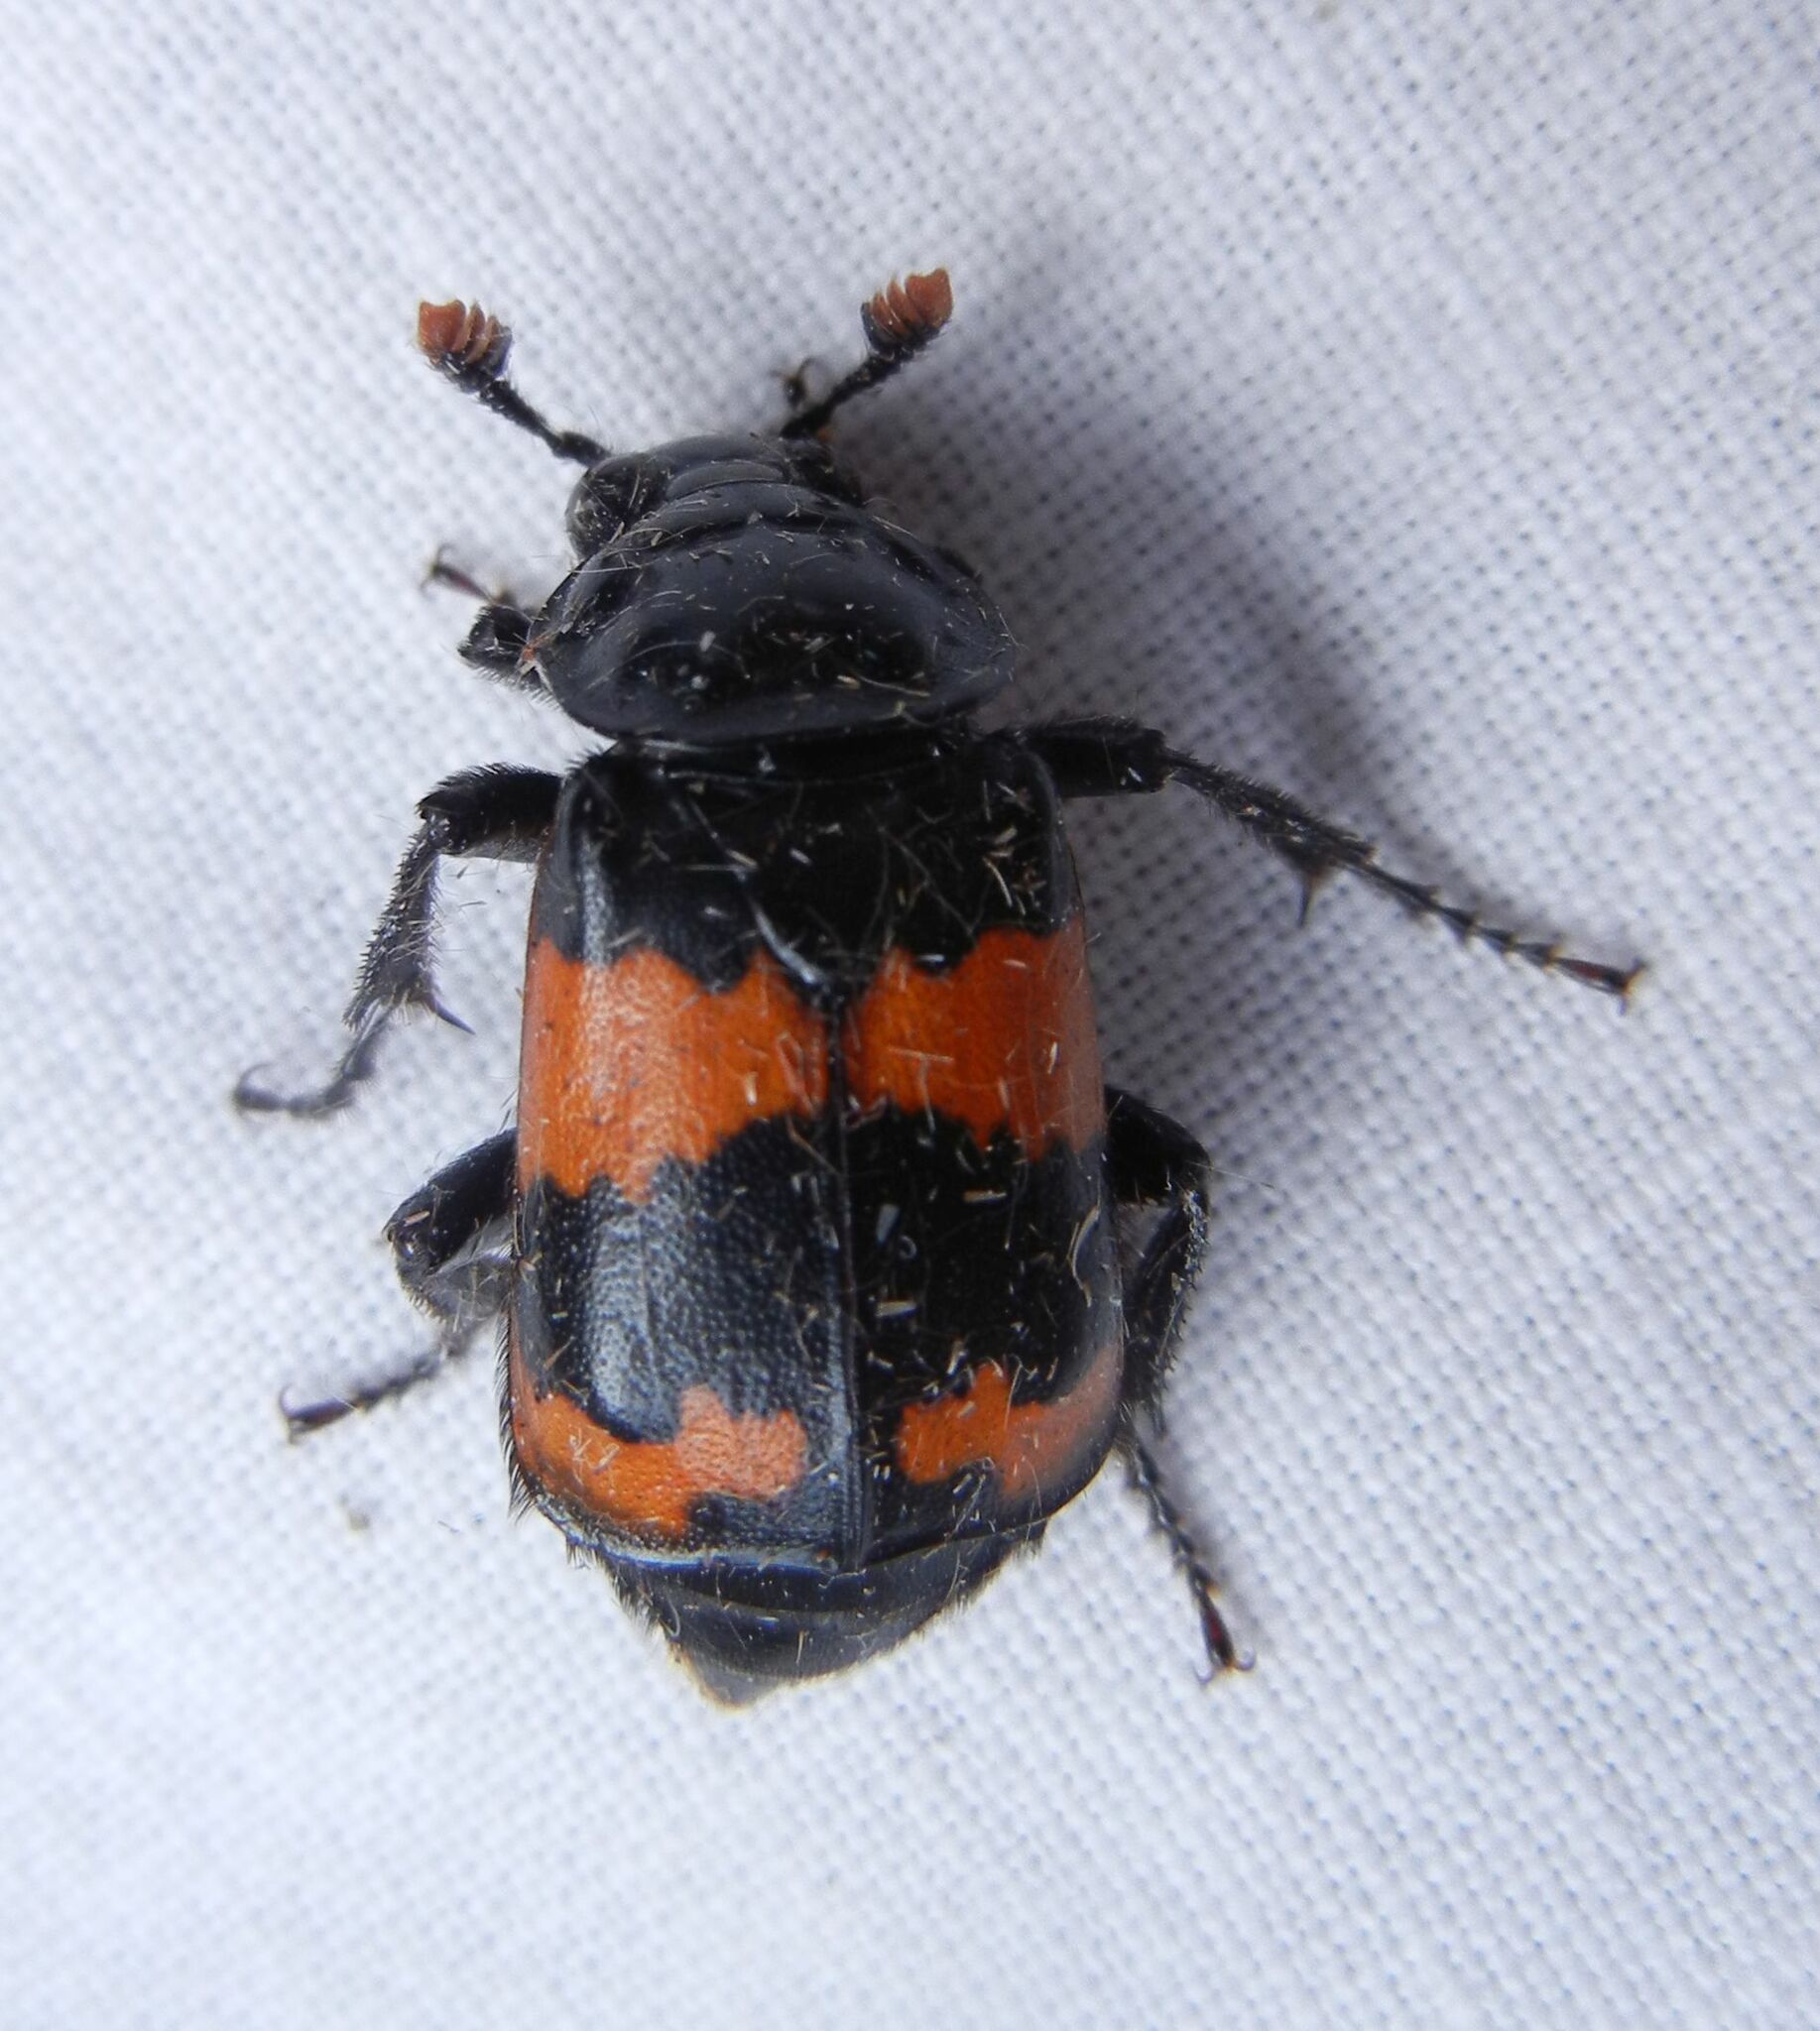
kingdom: Animalia
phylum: Arthropoda
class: Insecta
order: Coleoptera
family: Staphylinidae
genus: Nicrophorus
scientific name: Nicrophorus investigator
